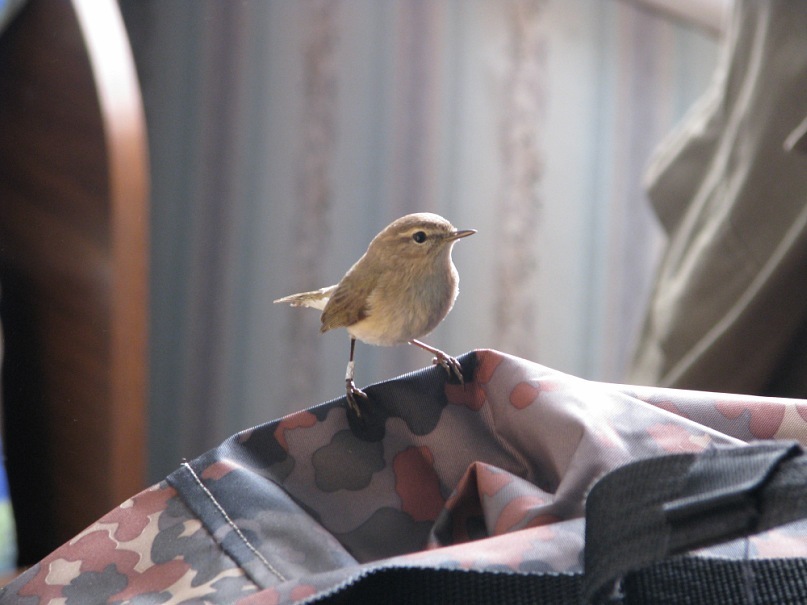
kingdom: Animalia
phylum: Chordata
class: Aves
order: Passeriformes
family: Phylloscopidae
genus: Phylloscopus
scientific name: Phylloscopus collybita
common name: Common chiffchaff
